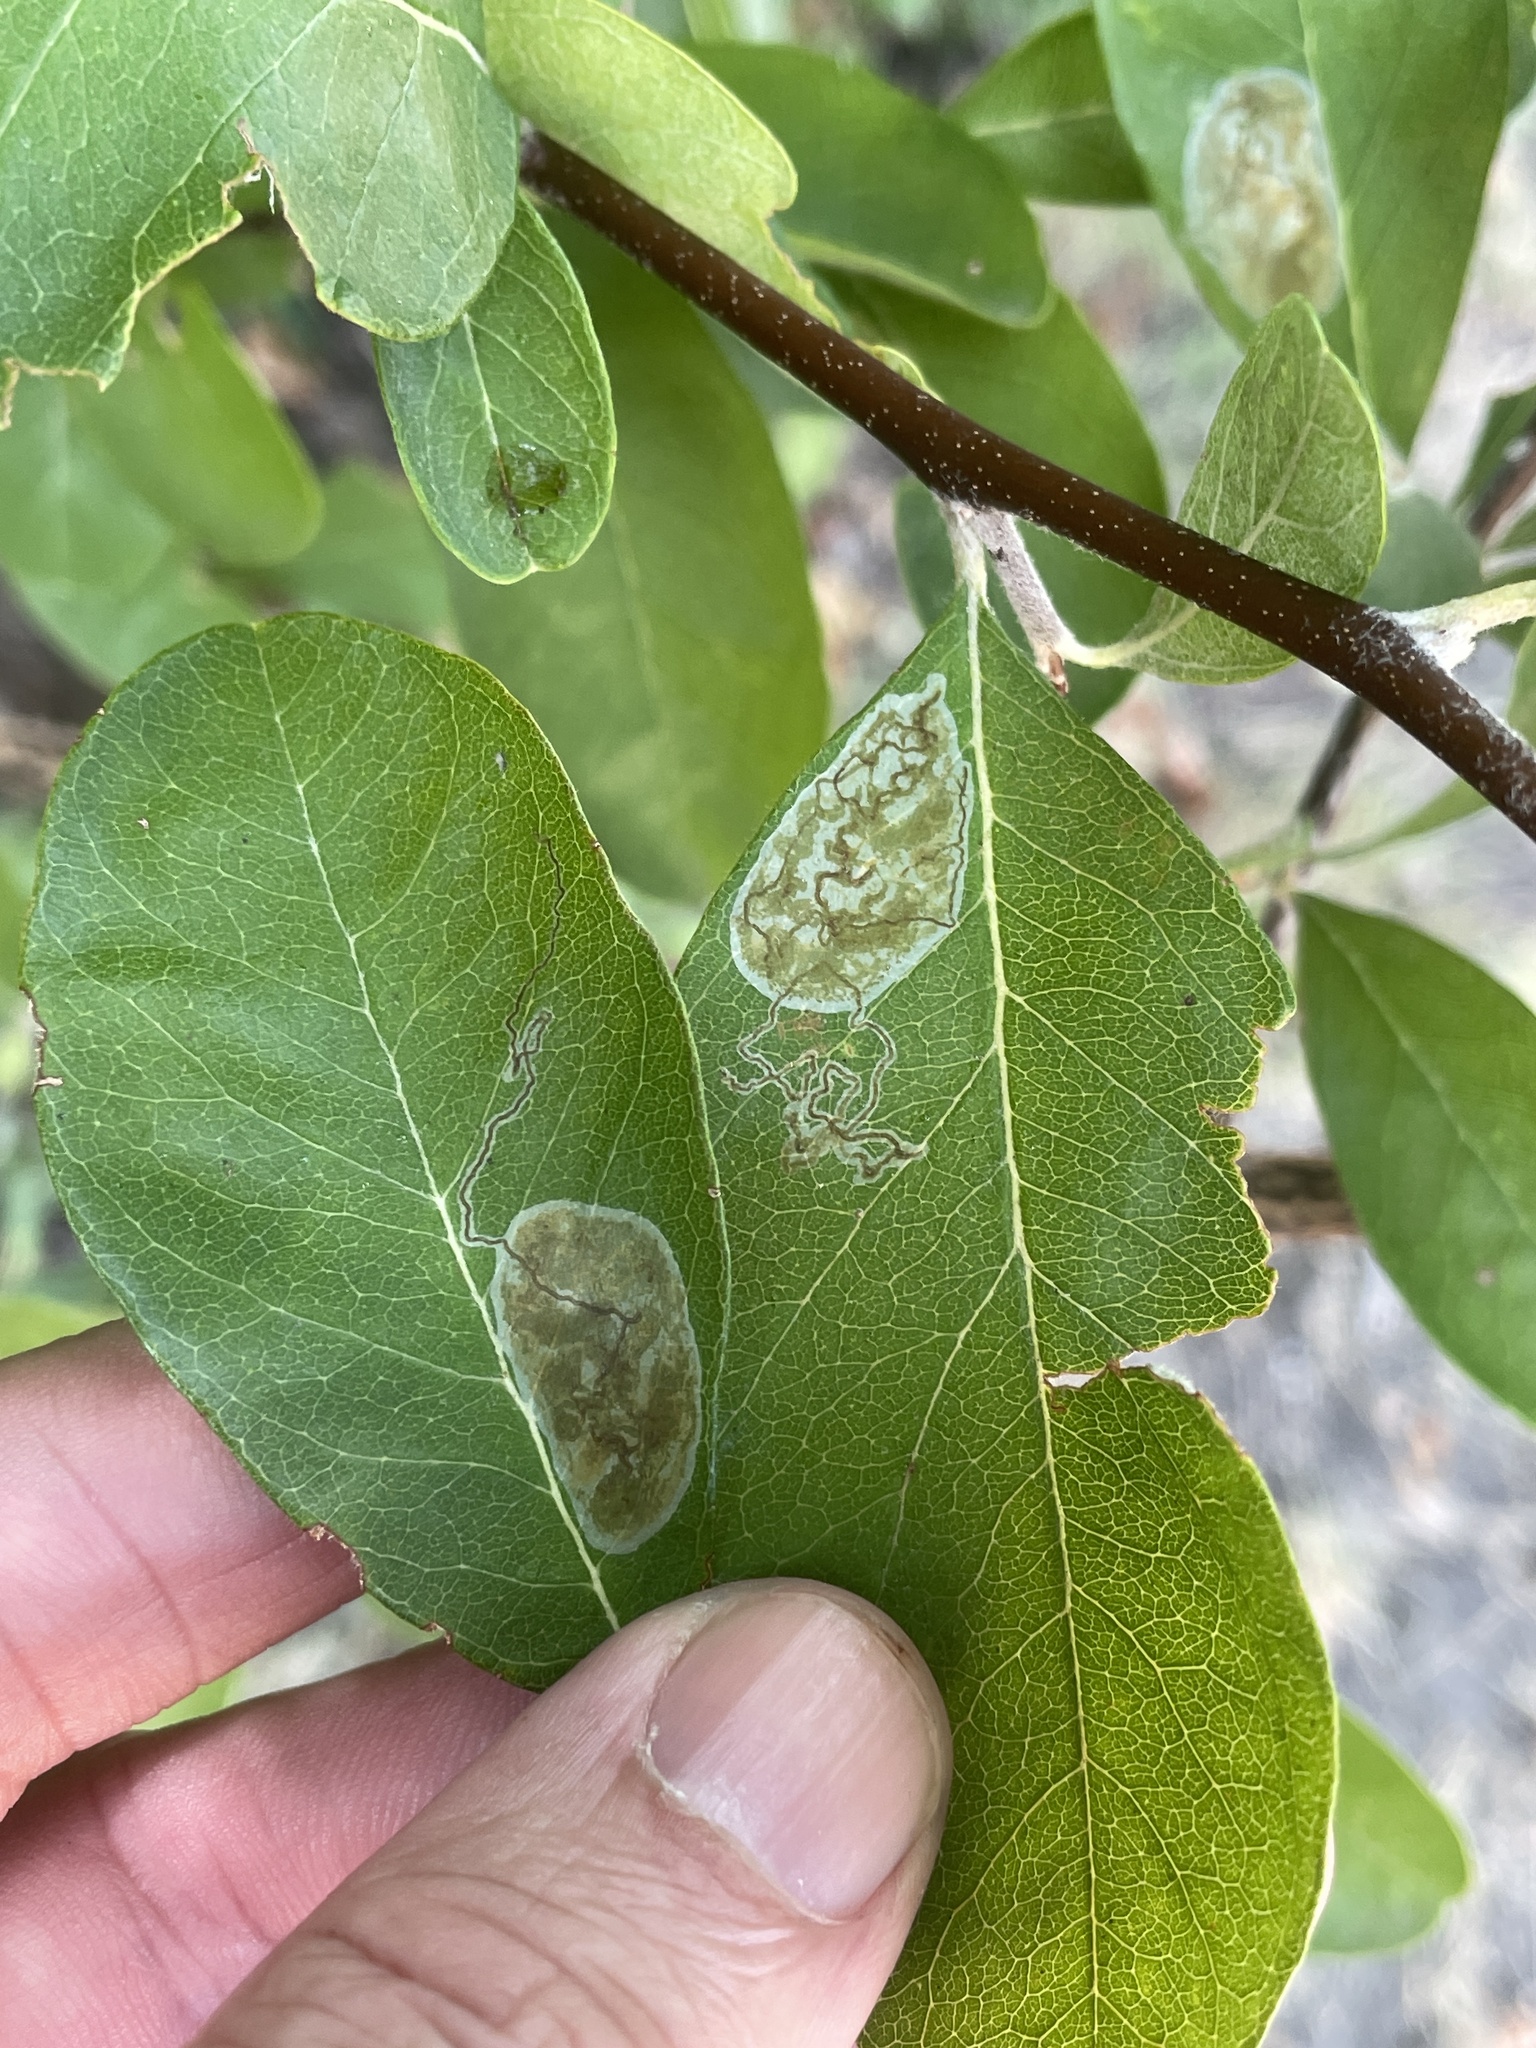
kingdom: Animalia
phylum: Arthropoda
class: Insecta
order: Lepidoptera
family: Gracillariidae
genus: Parectopa
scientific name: Parectopa bumeliella
